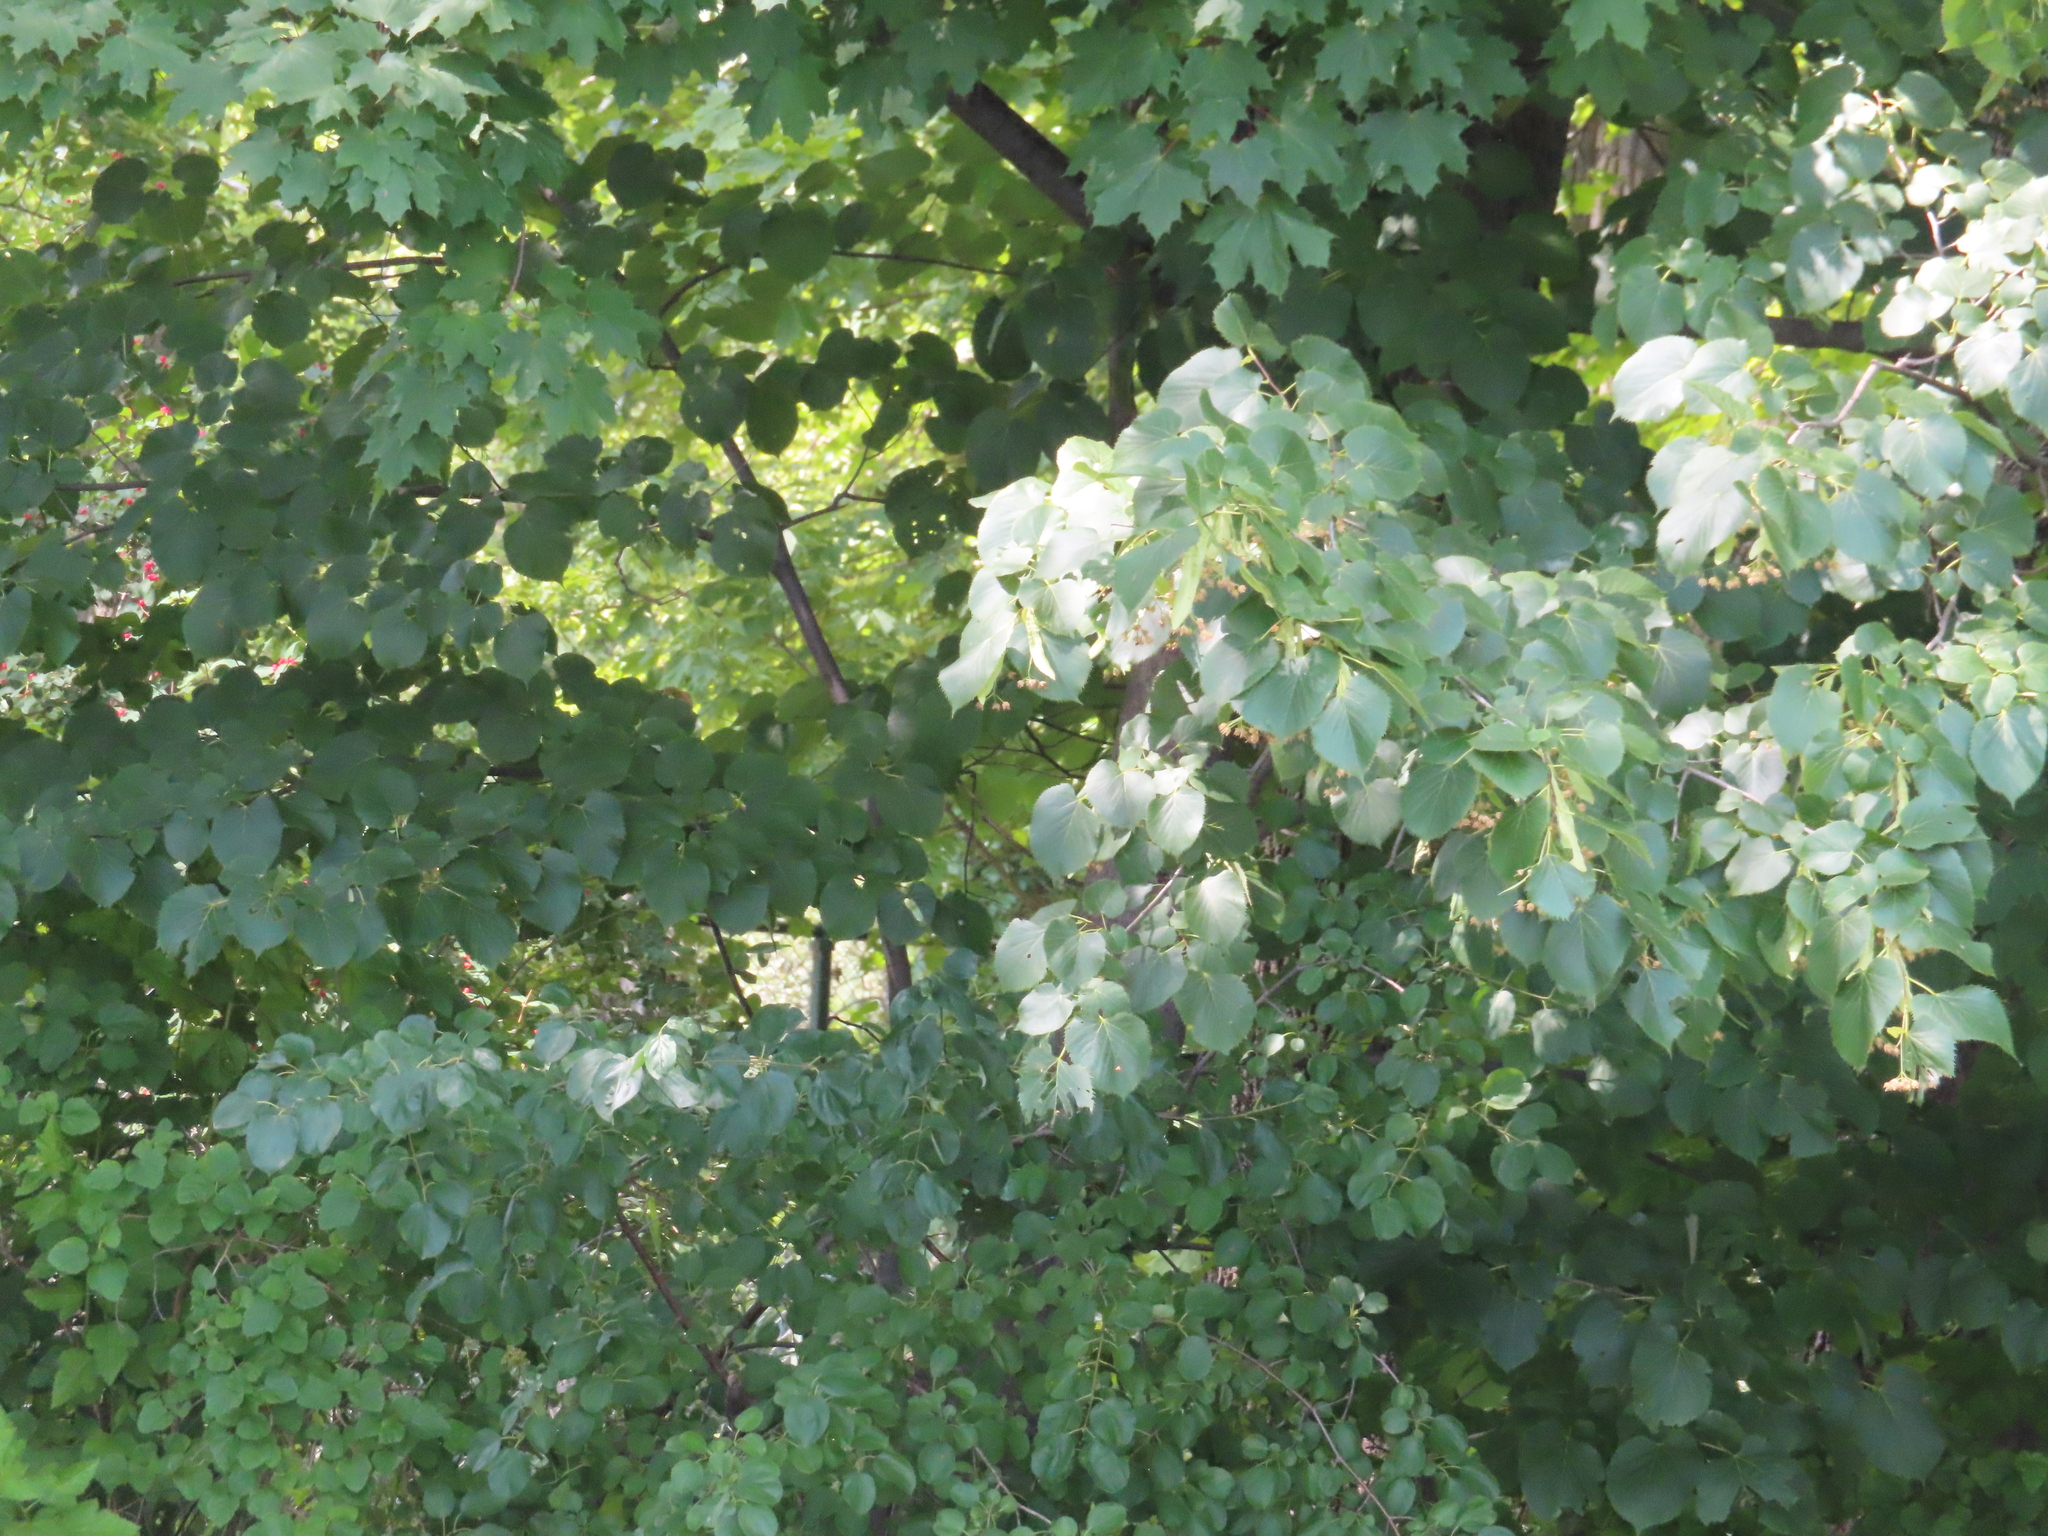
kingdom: Plantae
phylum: Tracheophyta
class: Magnoliopsida
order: Malvales
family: Malvaceae
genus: Tilia
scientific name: Tilia americana
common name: Basswood
